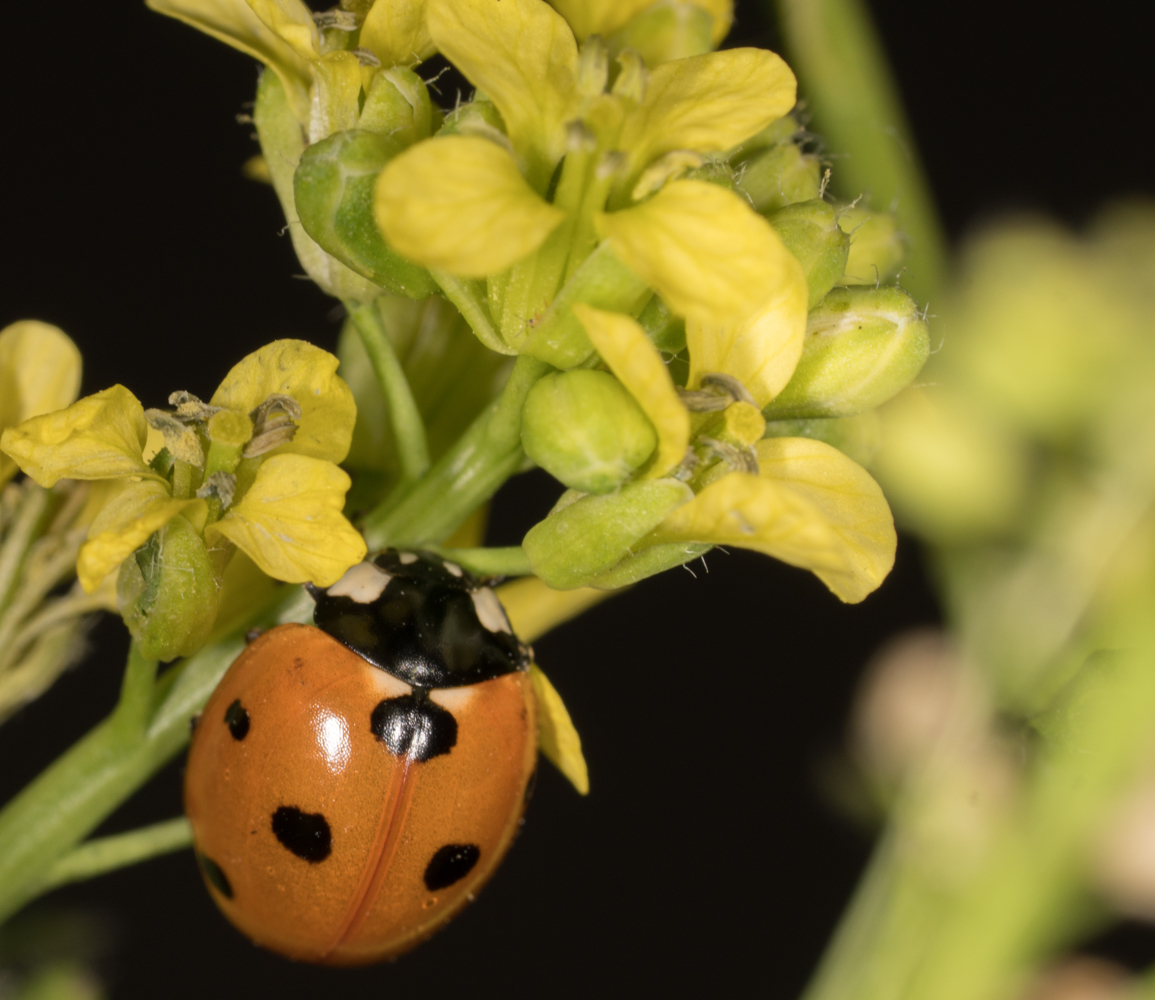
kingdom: Animalia
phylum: Arthropoda
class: Insecta
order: Coleoptera
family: Coccinellidae
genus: Coccinella
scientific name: Coccinella septempunctata
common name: Sevenspotted lady beetle
